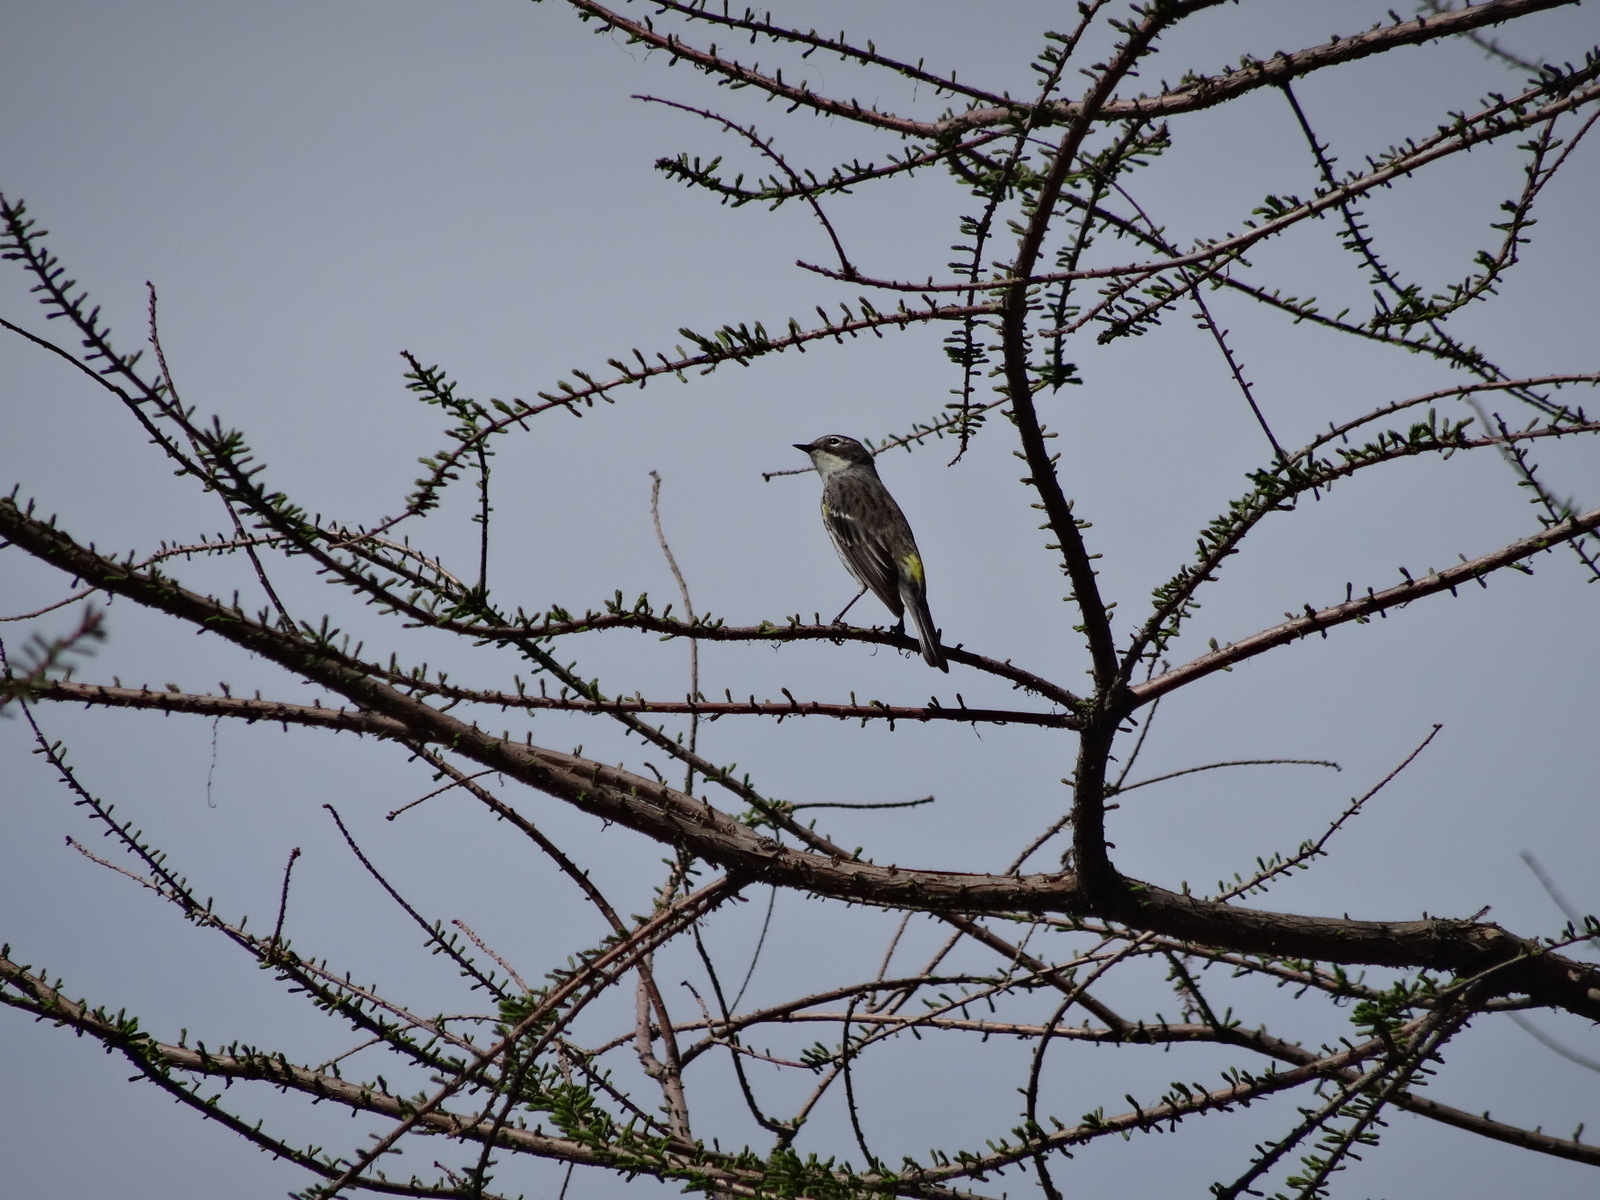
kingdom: Animalia
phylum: Chordata
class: Aves
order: Passeriformes
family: Parulidae
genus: Setophaga
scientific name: Setophaga coronata
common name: Myrtle warbler
